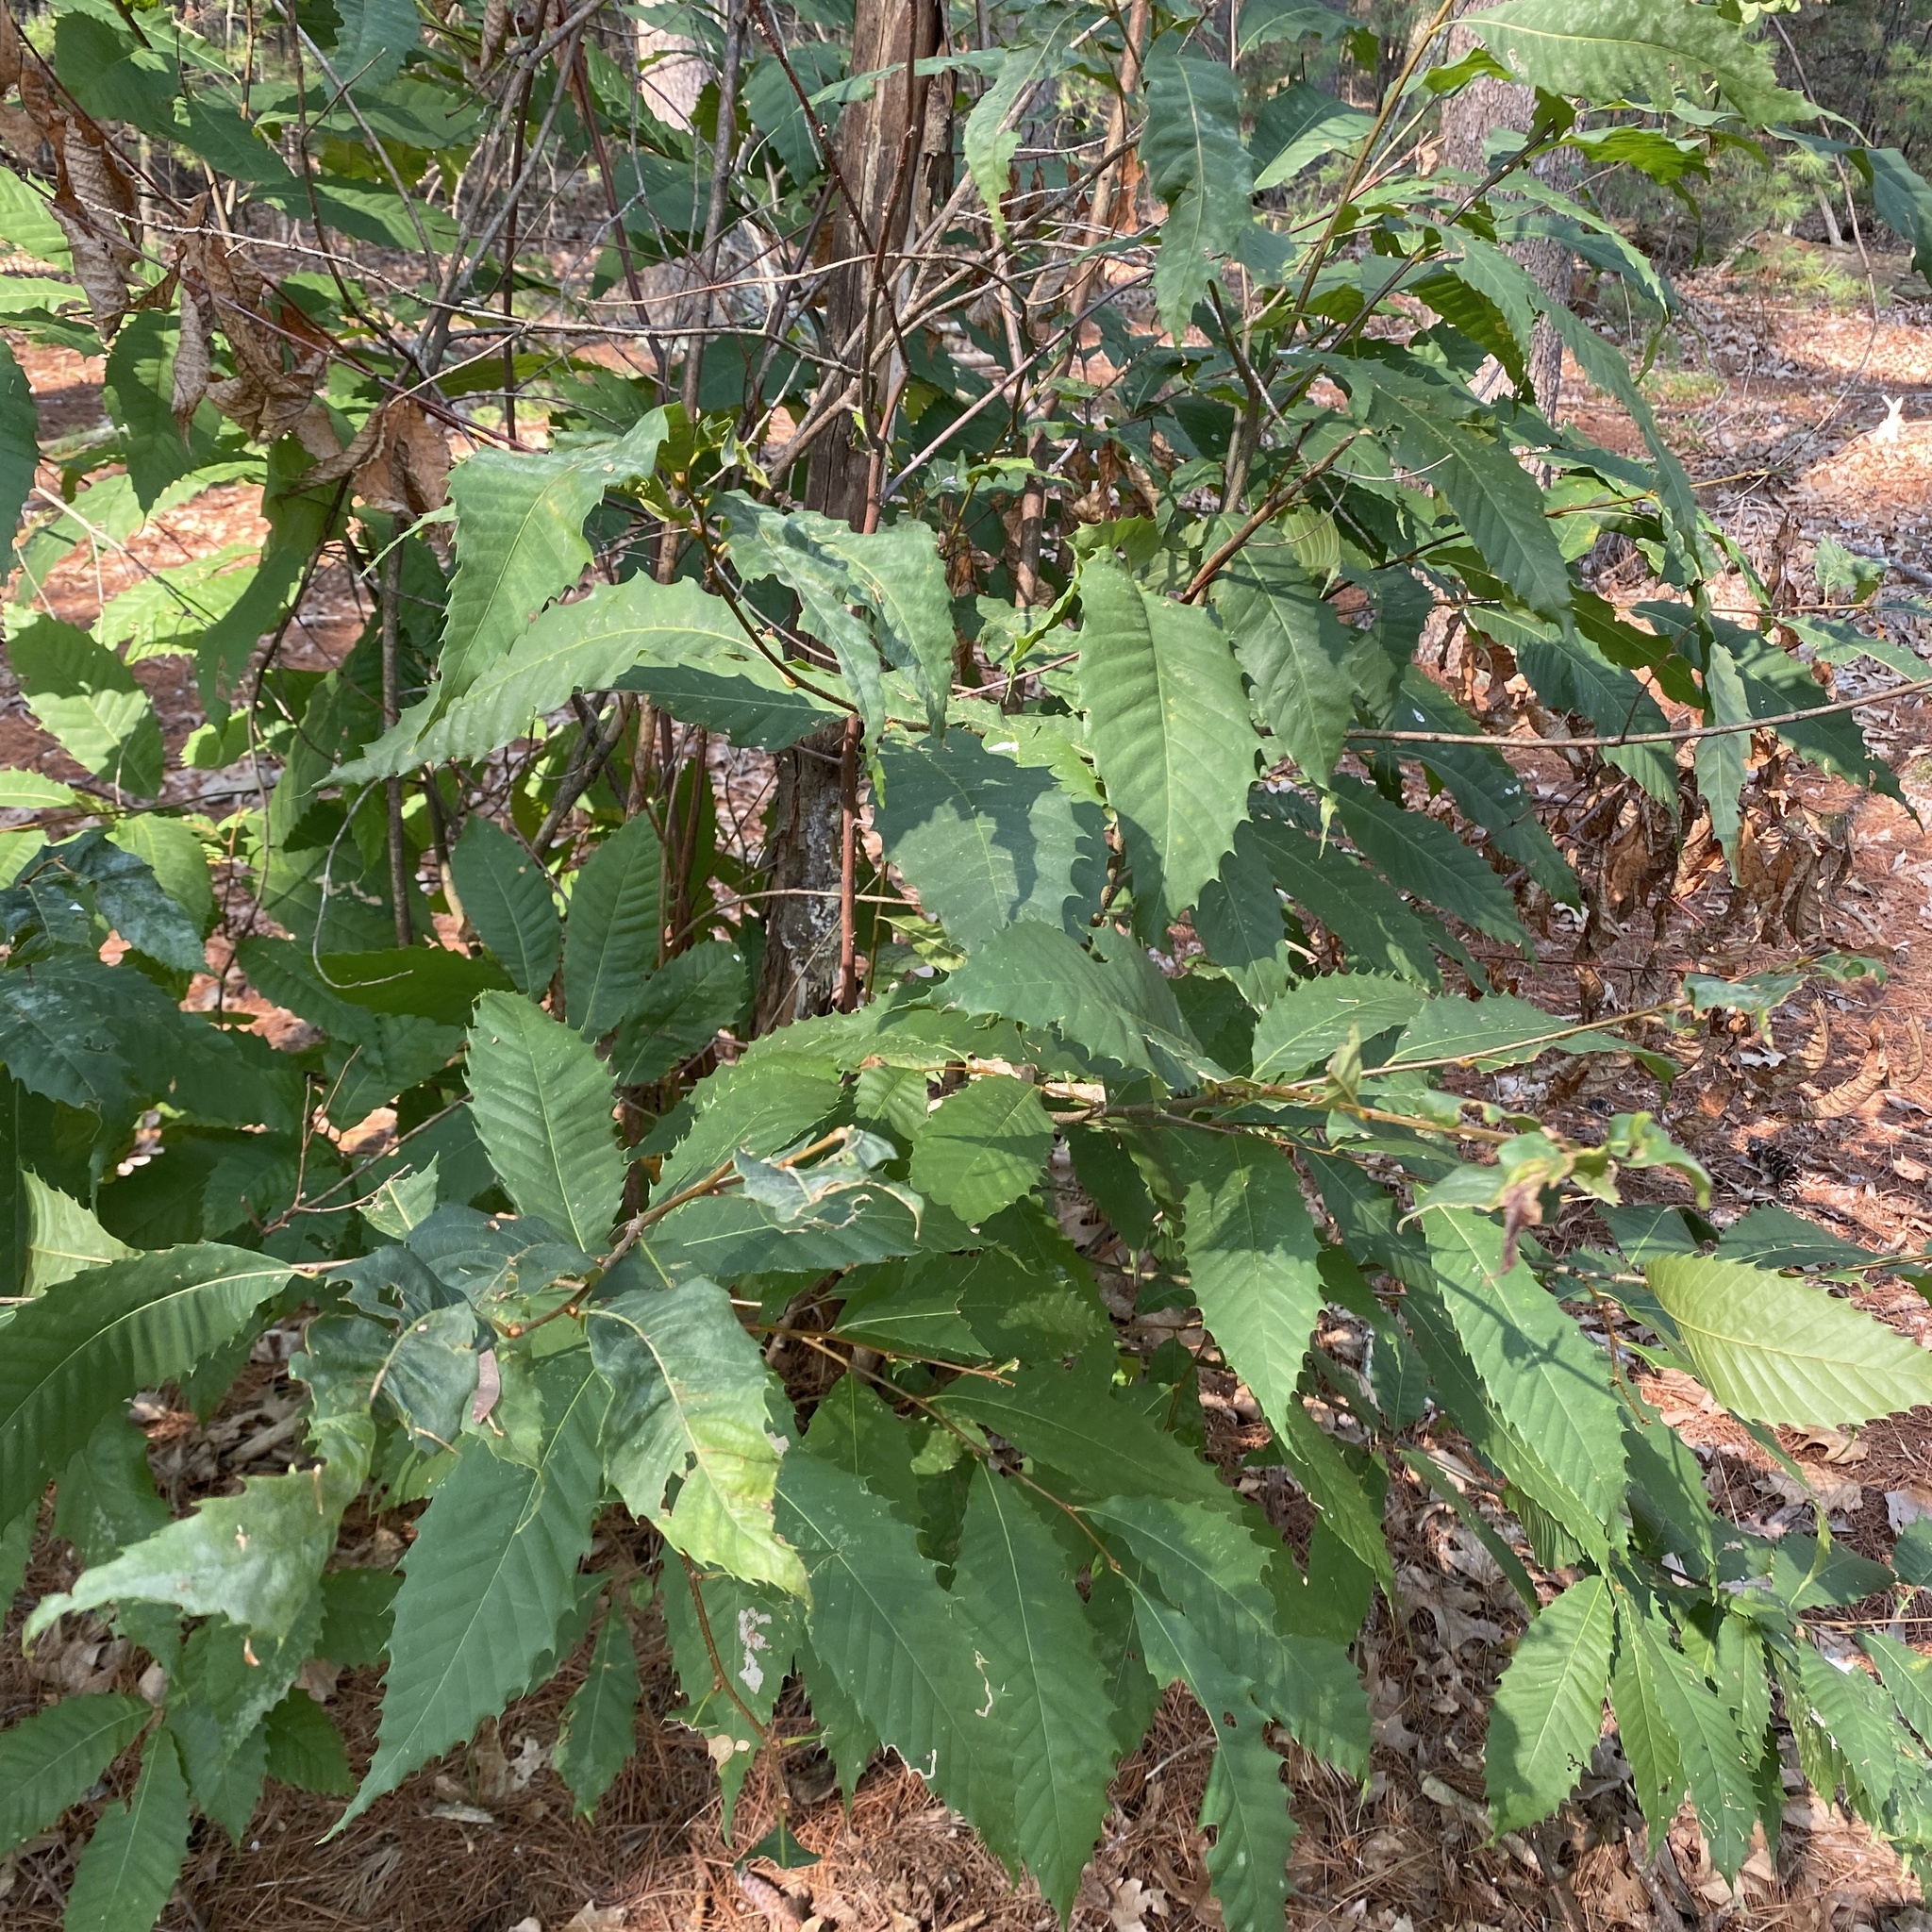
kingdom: Plantae
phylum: Tracheophyta
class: Magnoliopsida
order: Fagales
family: Fagaceae
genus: Castanea
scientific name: Castanea dentata
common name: American chestnut
